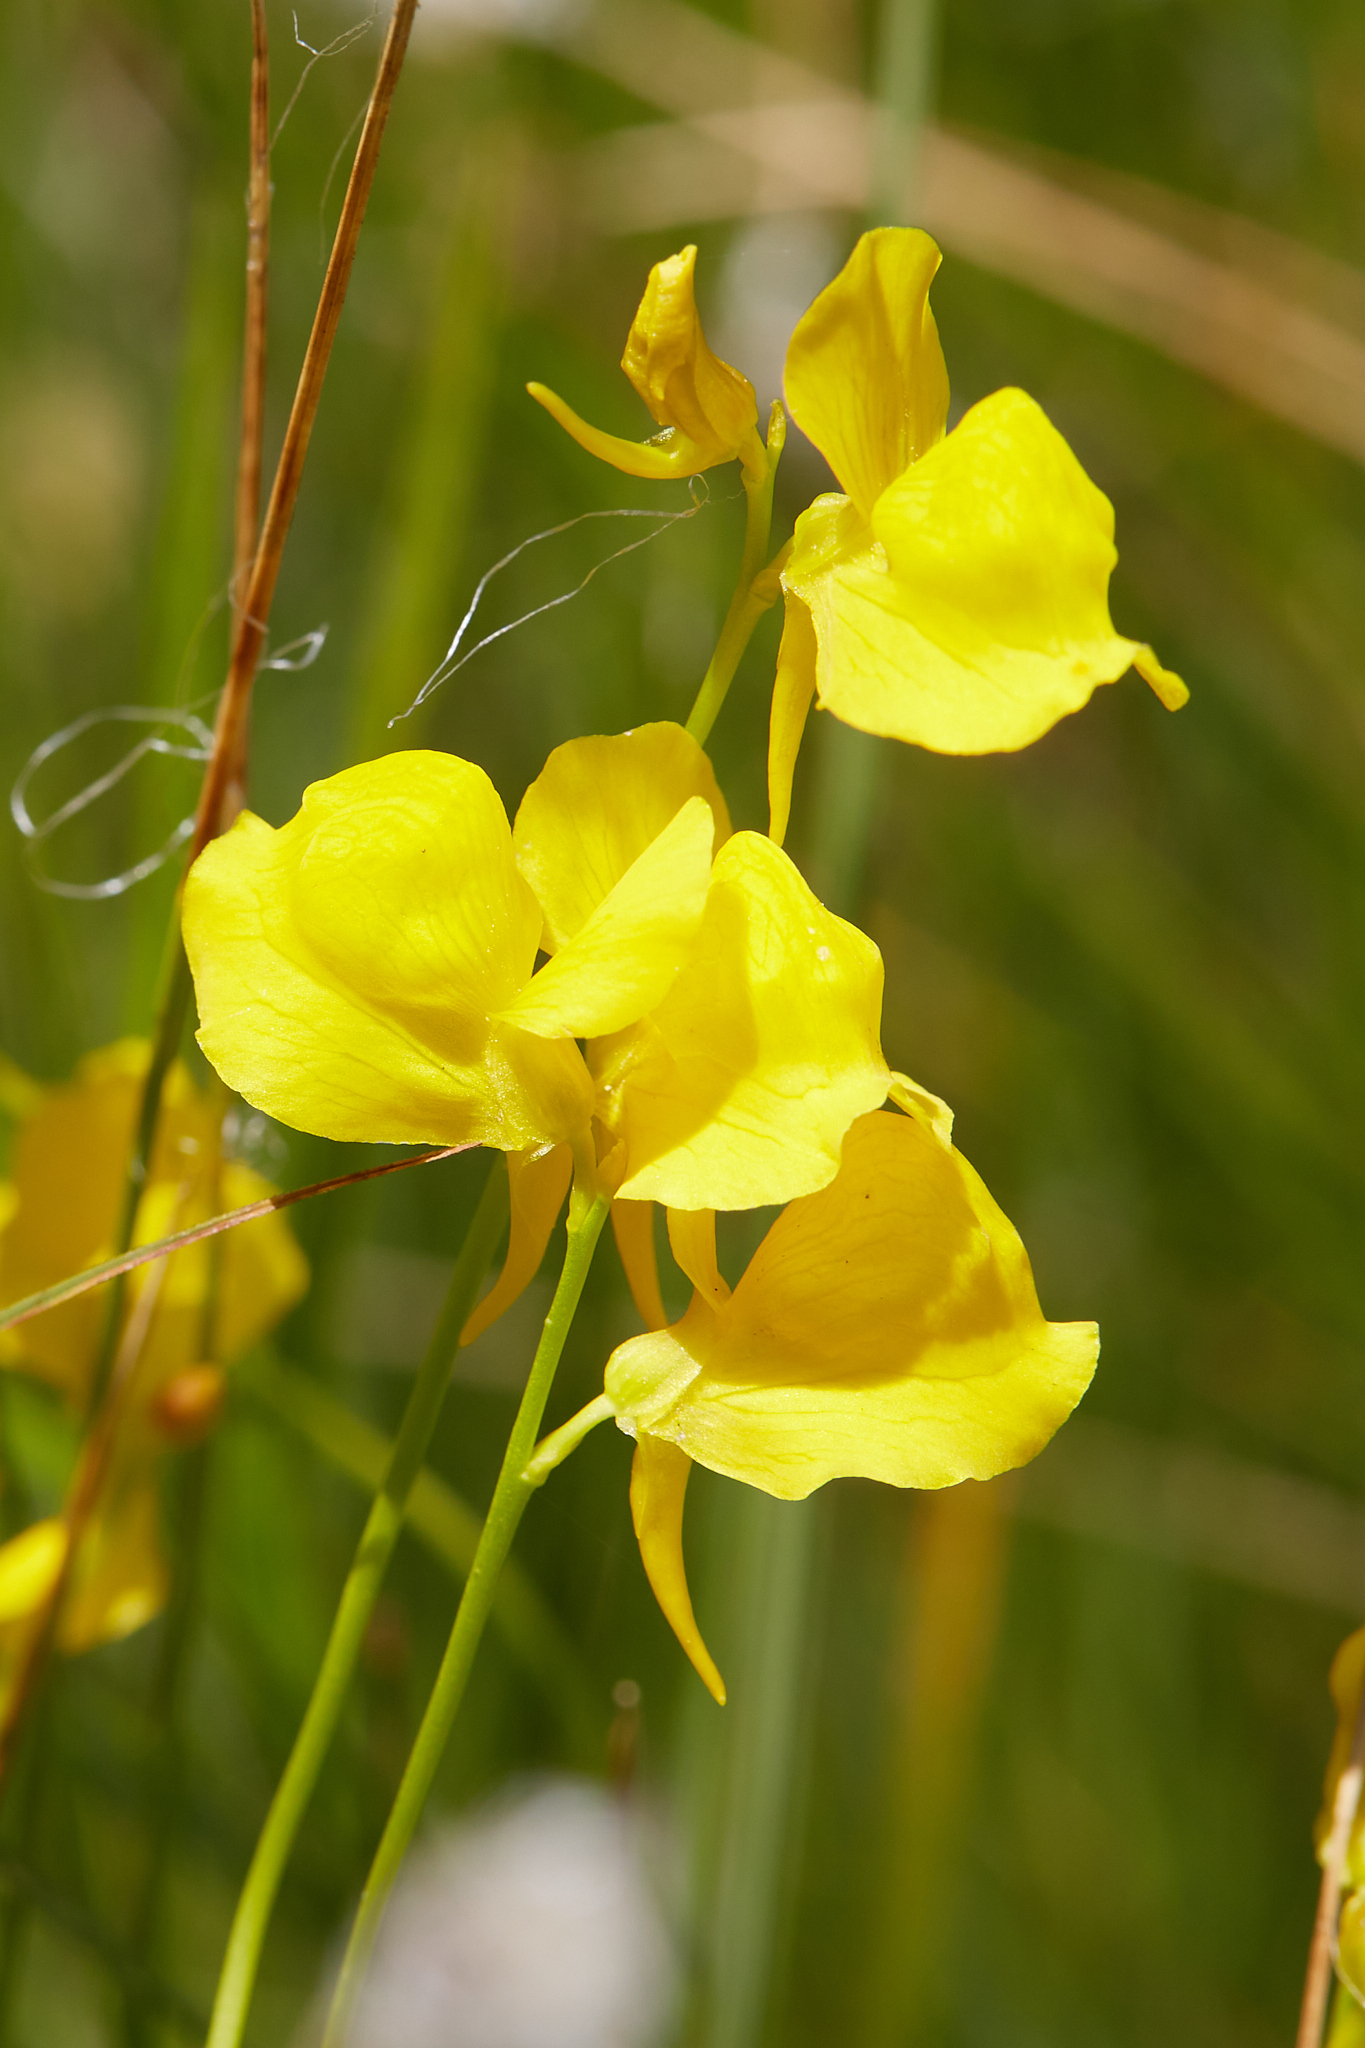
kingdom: Plantae
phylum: Tracheophyta
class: Magnoliopsida
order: Lamiales
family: Lentibulariaceae
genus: Utricularia
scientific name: Utricularia cornuta
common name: Horned bladderwort
